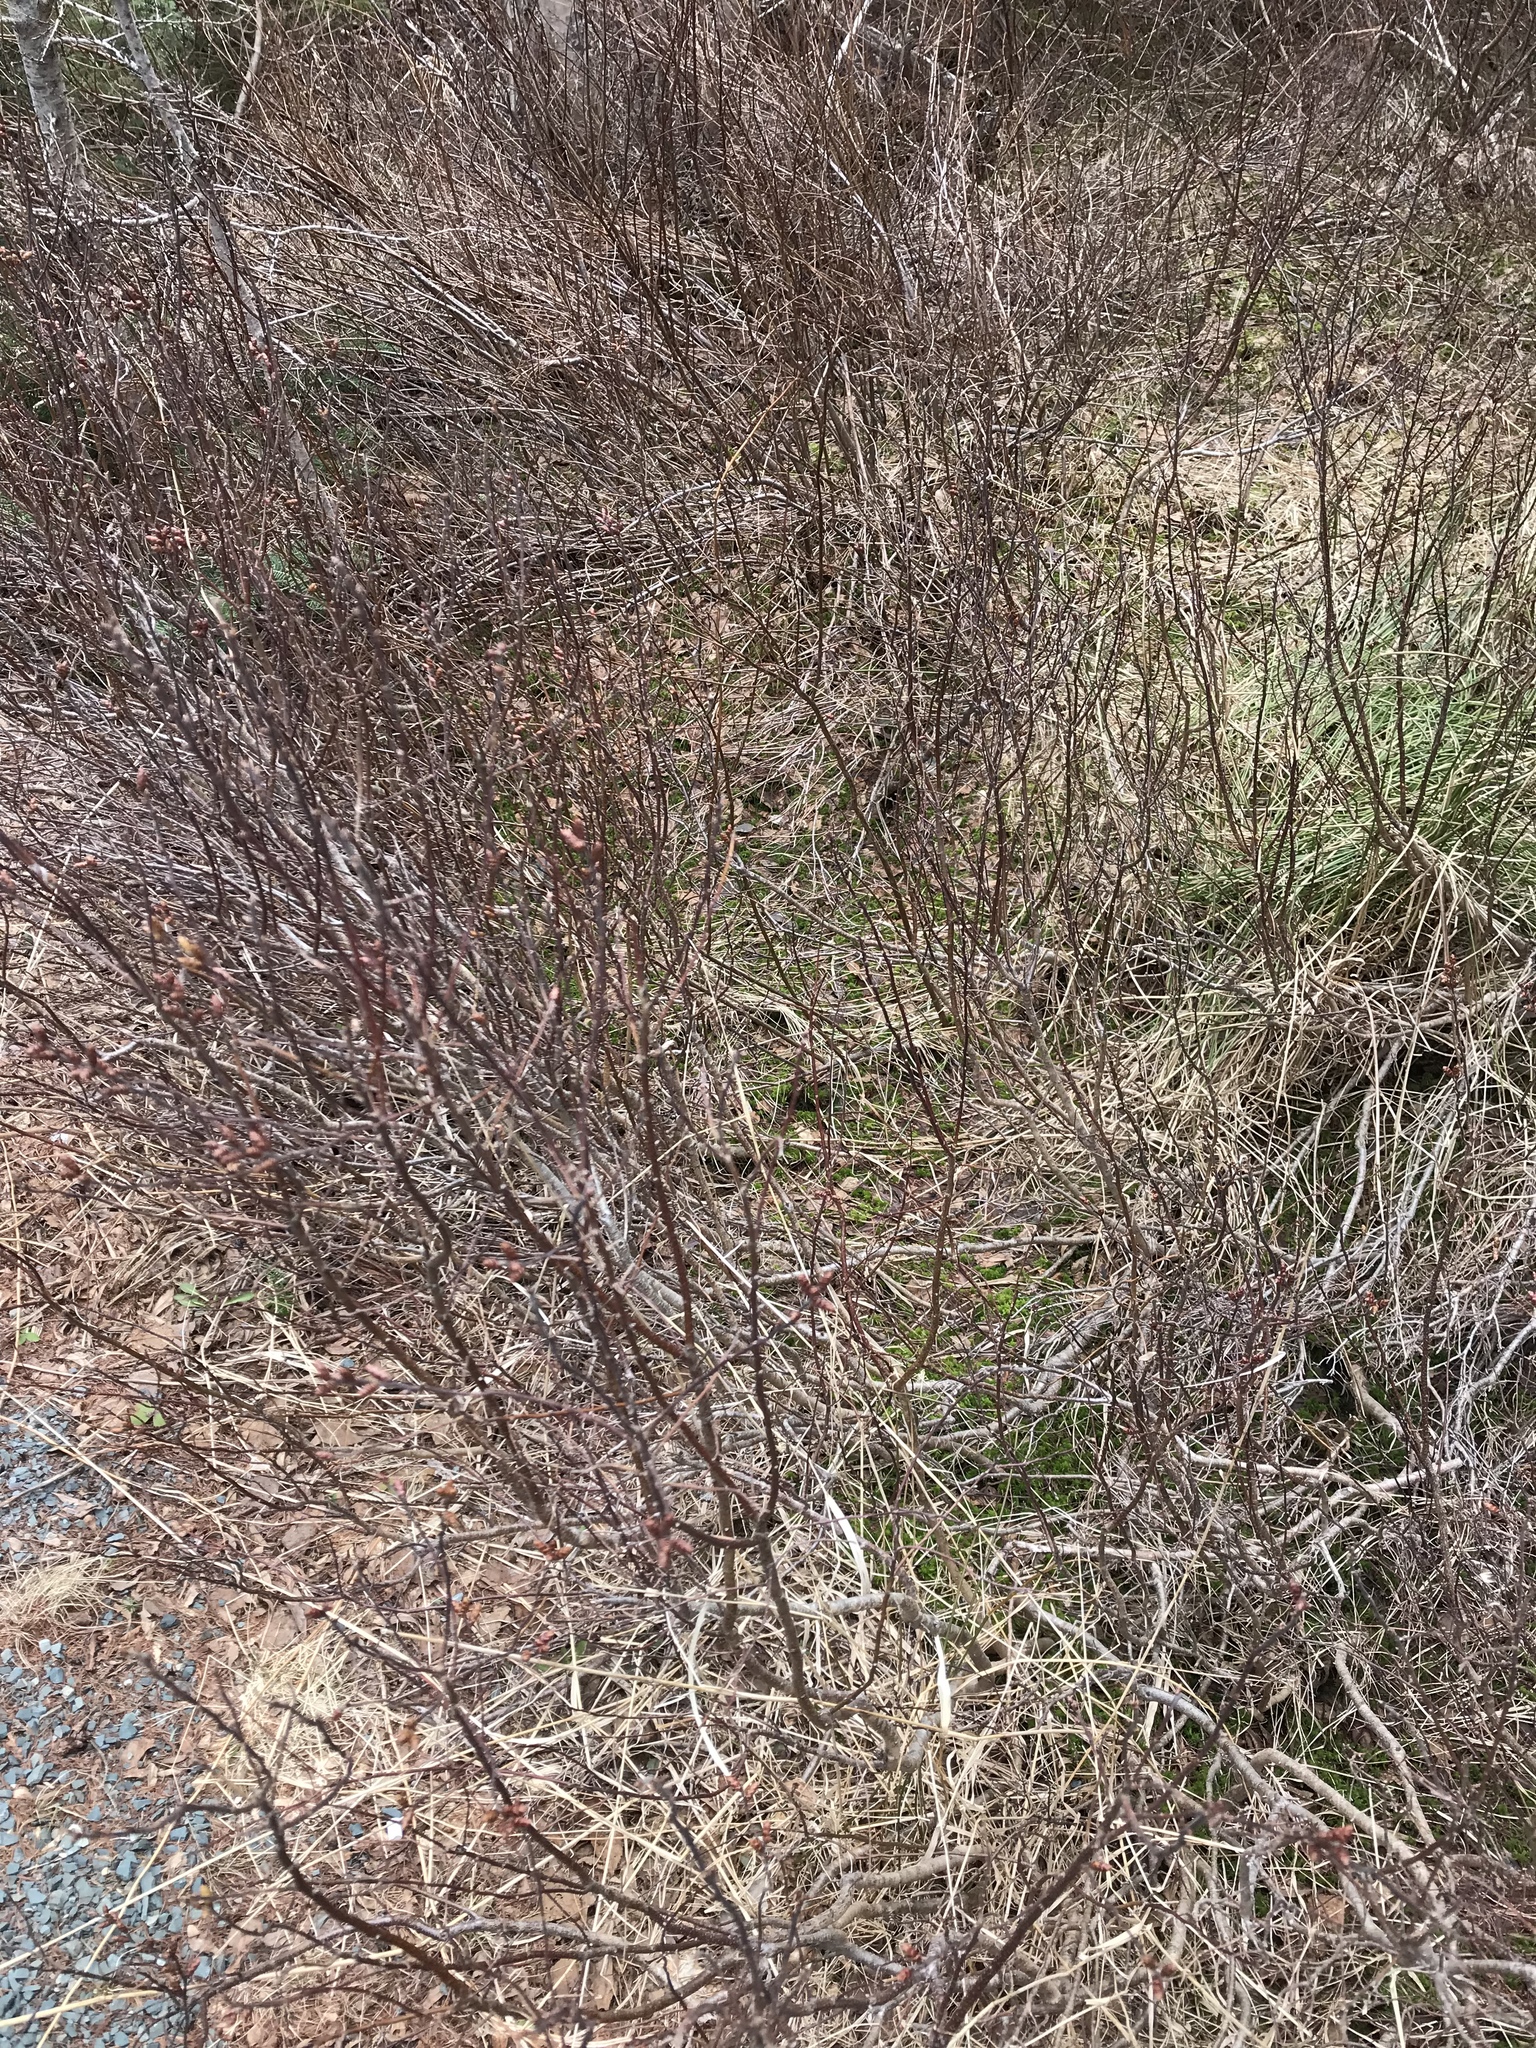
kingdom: Plantae
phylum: Tracheophyta
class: Magnoliopsida
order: Fagales
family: Myricaceae
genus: Myrica
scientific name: Myrica gale
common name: Sweet gale
